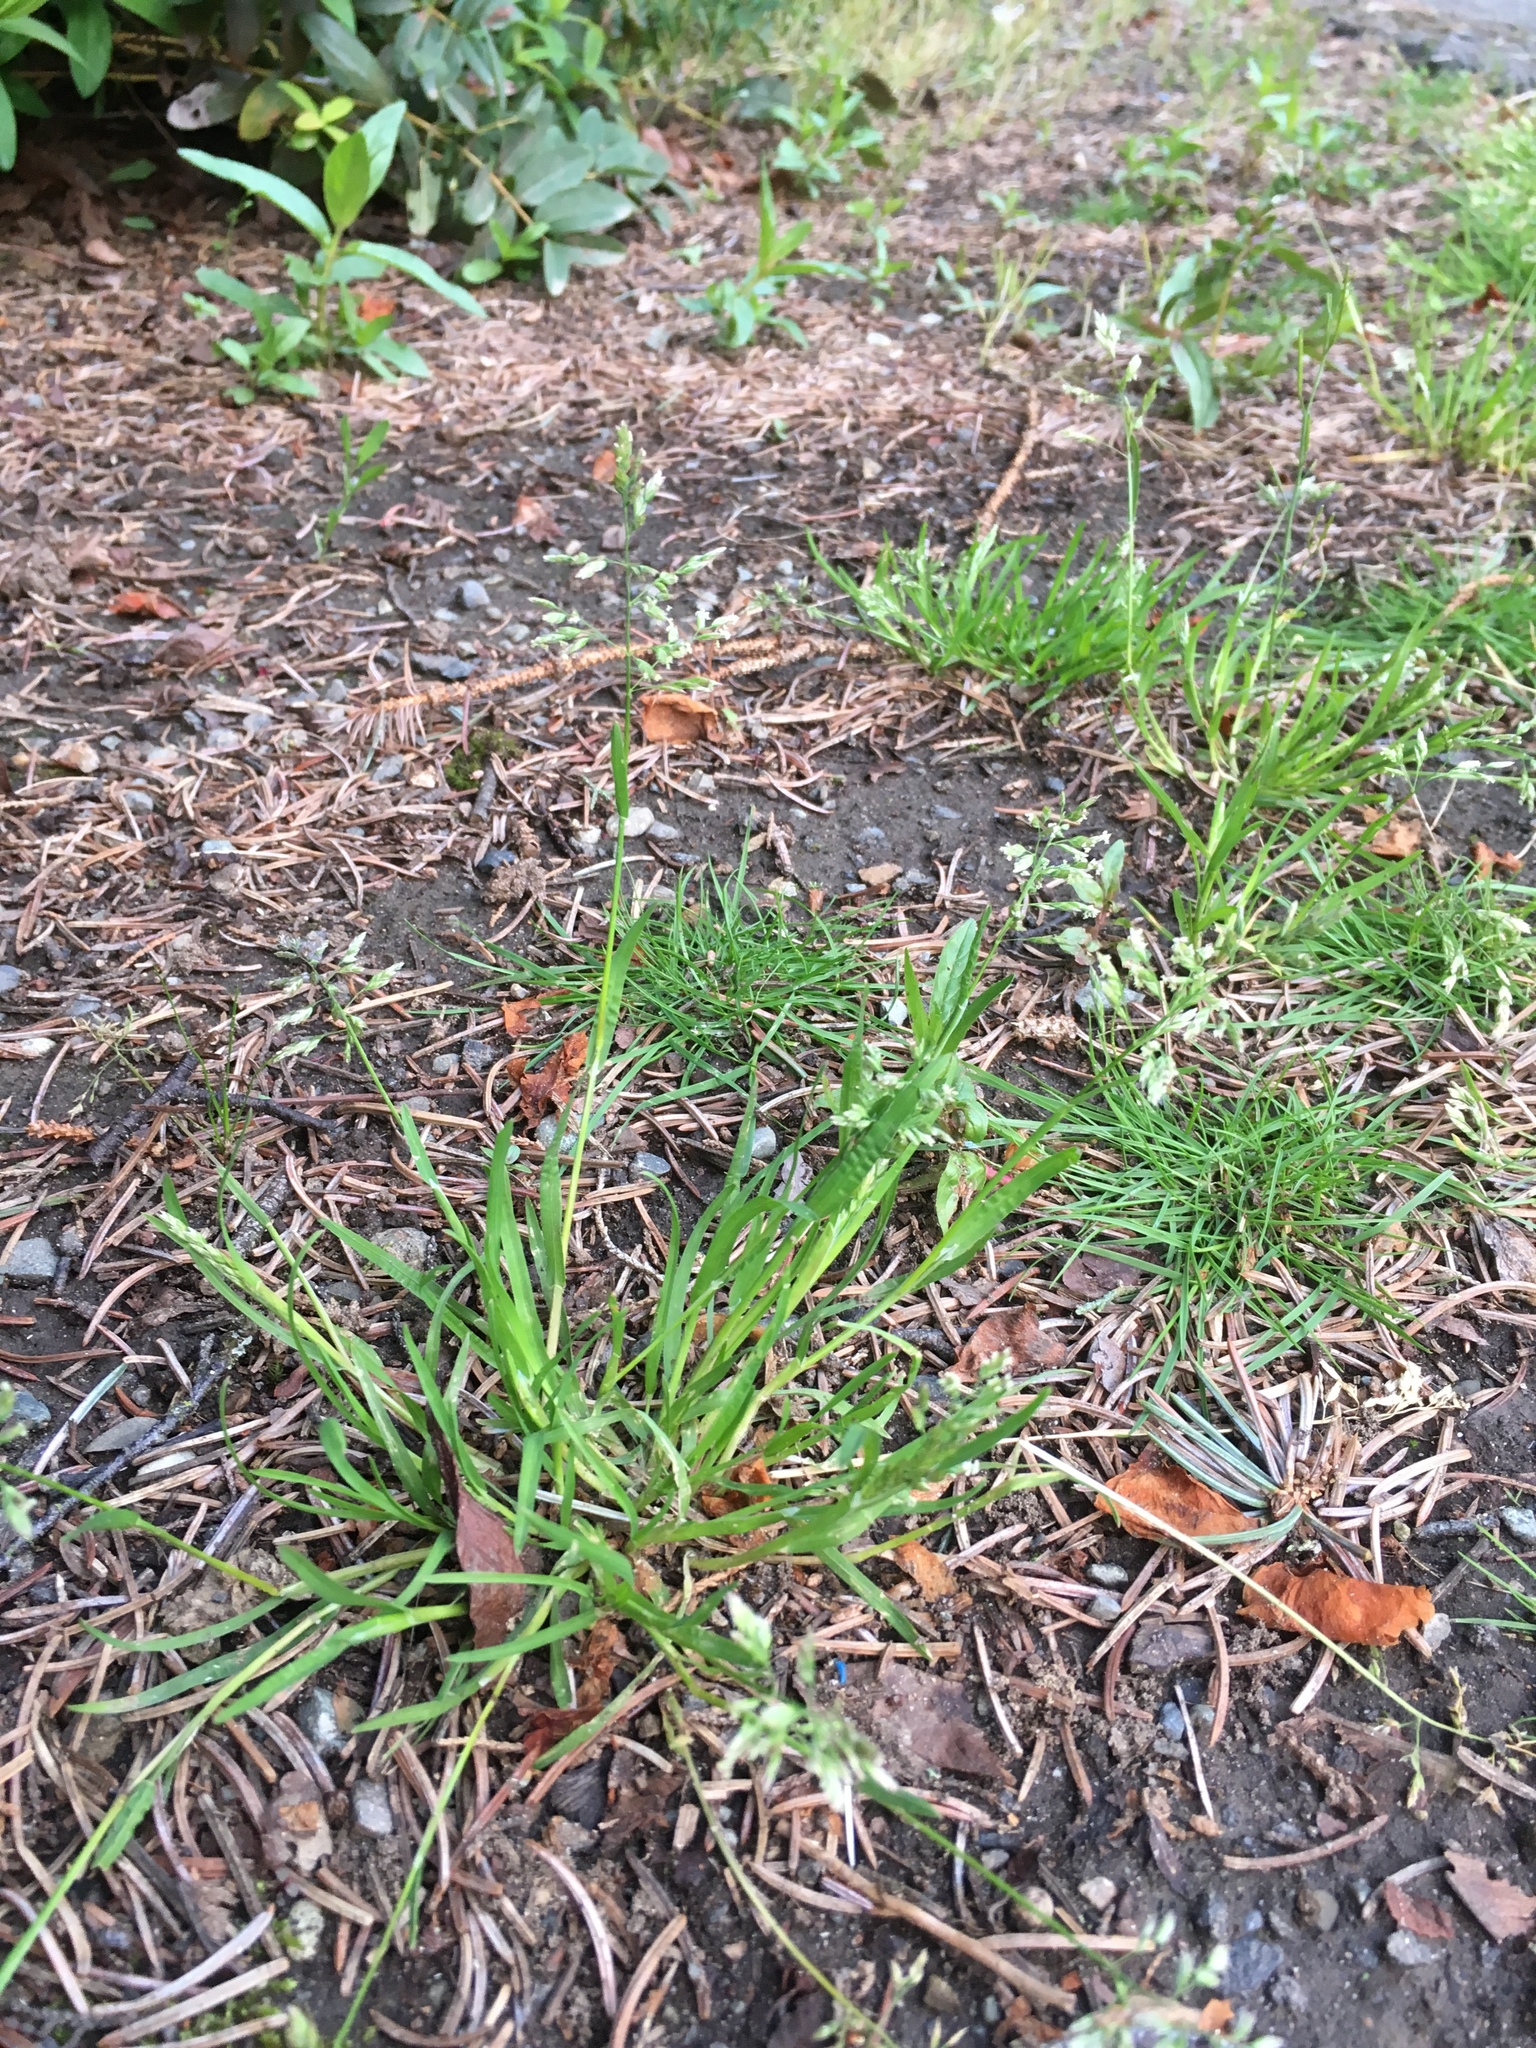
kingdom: Plantae
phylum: Tracheophyta
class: Liliopsida
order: Poales
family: Poaceae
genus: Poa
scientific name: Poa annua
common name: Annual bluegrass
